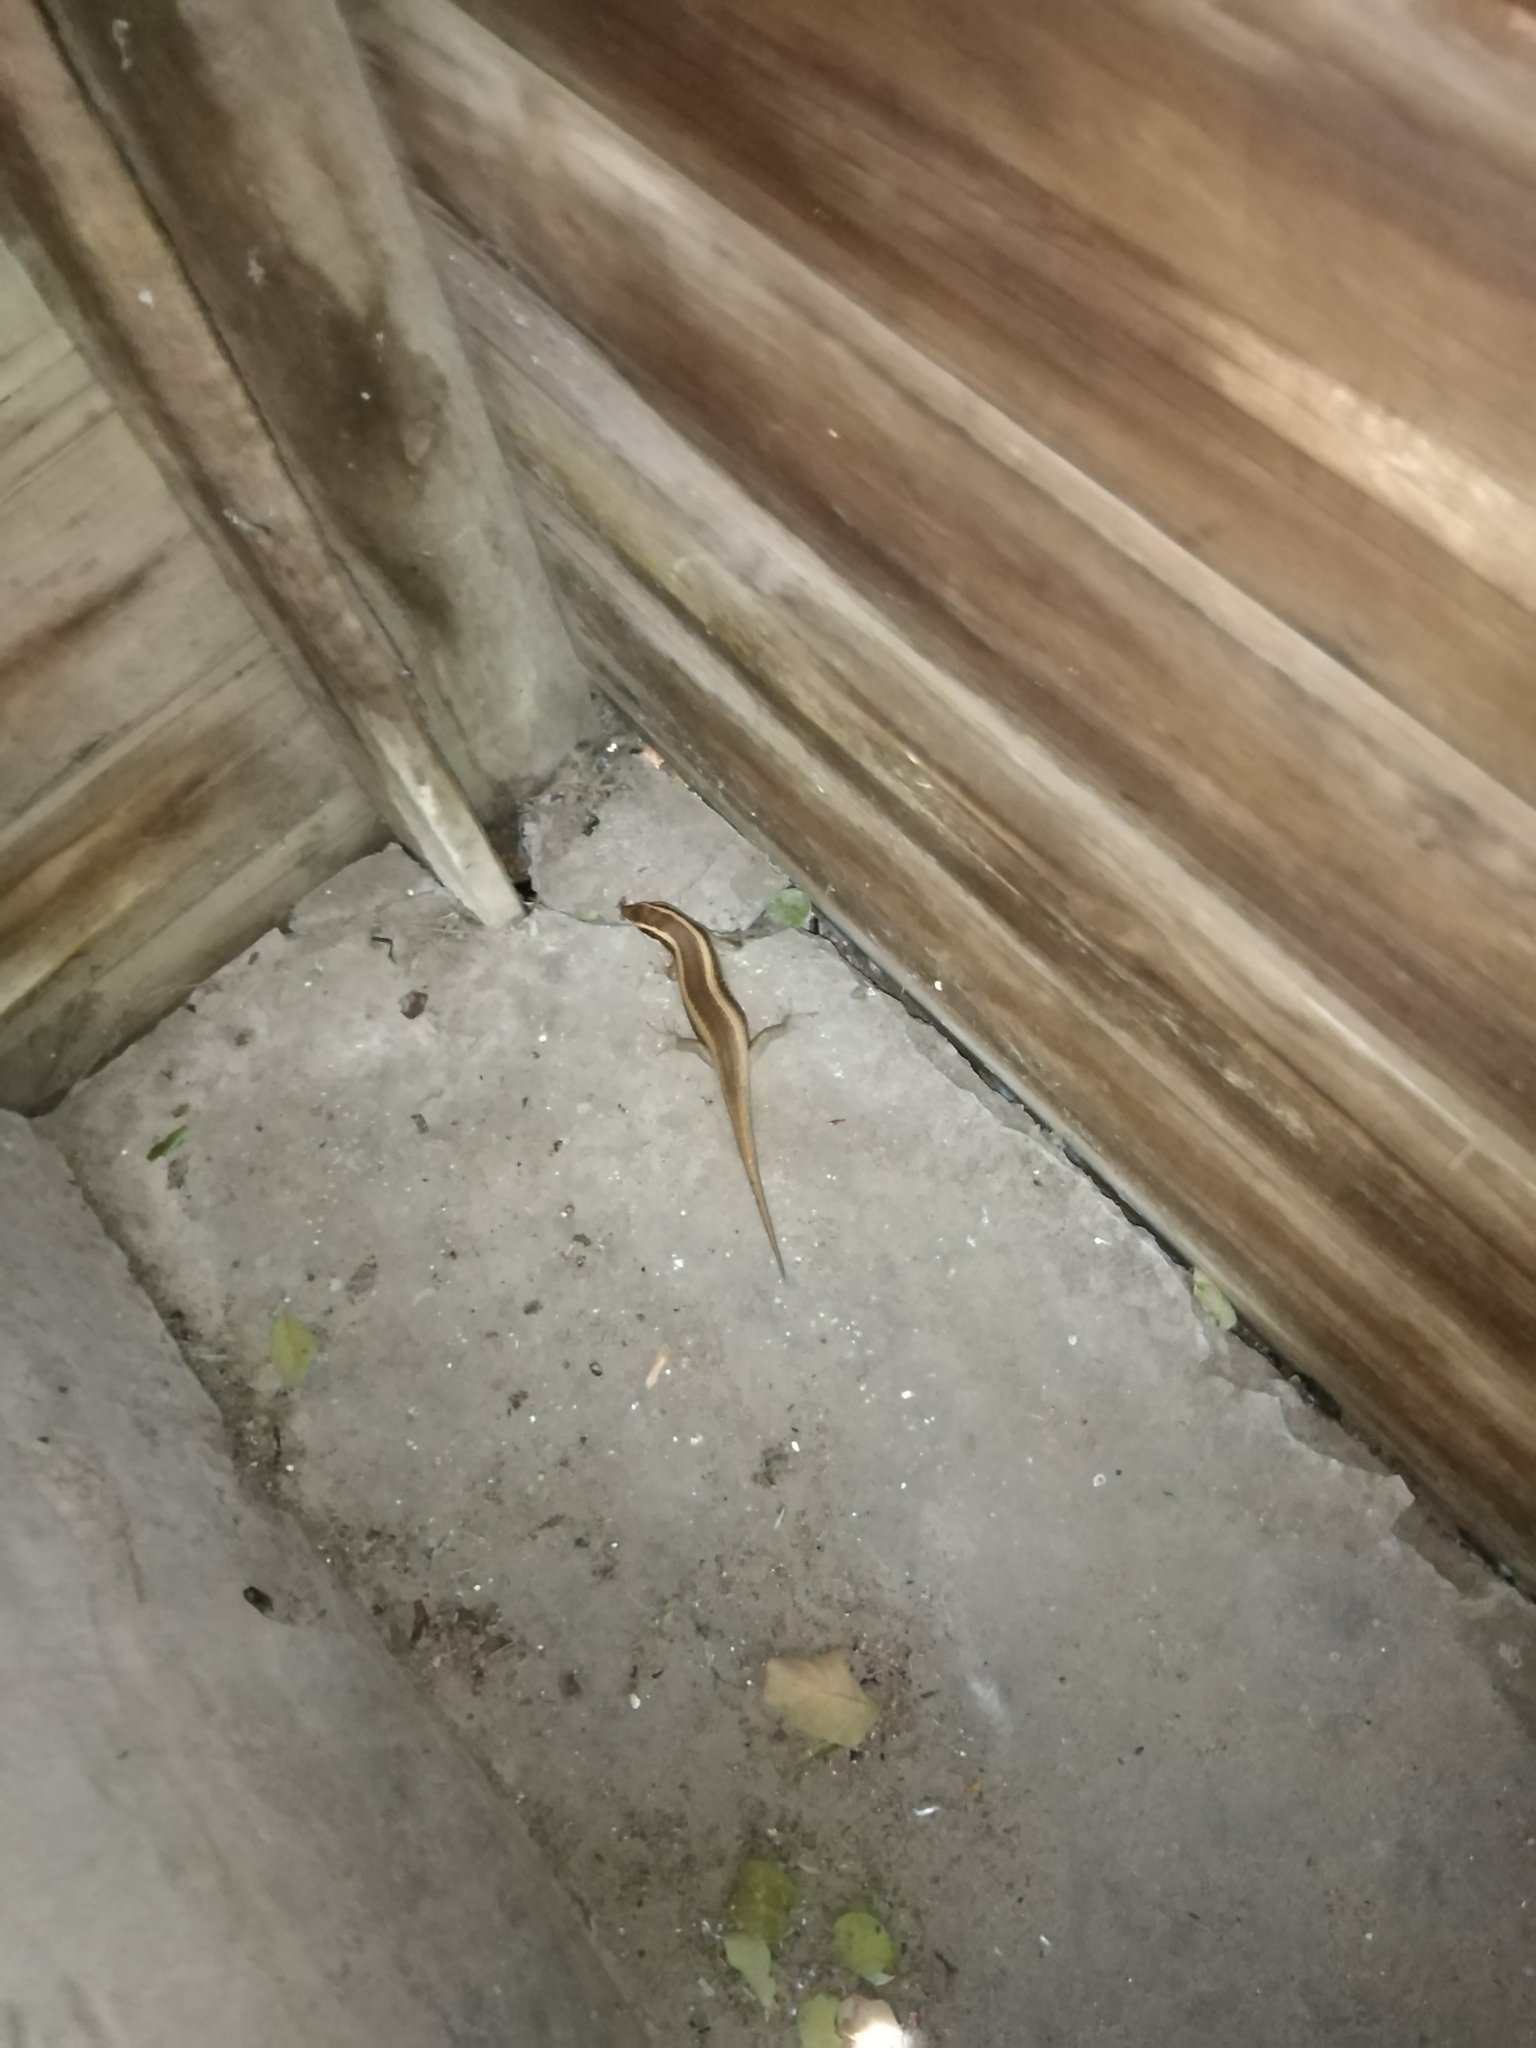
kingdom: Animalia
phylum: Chordata
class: Squamata
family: Scincidae
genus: Trachylepis
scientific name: Trachylepis striata
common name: African striped mabuya
